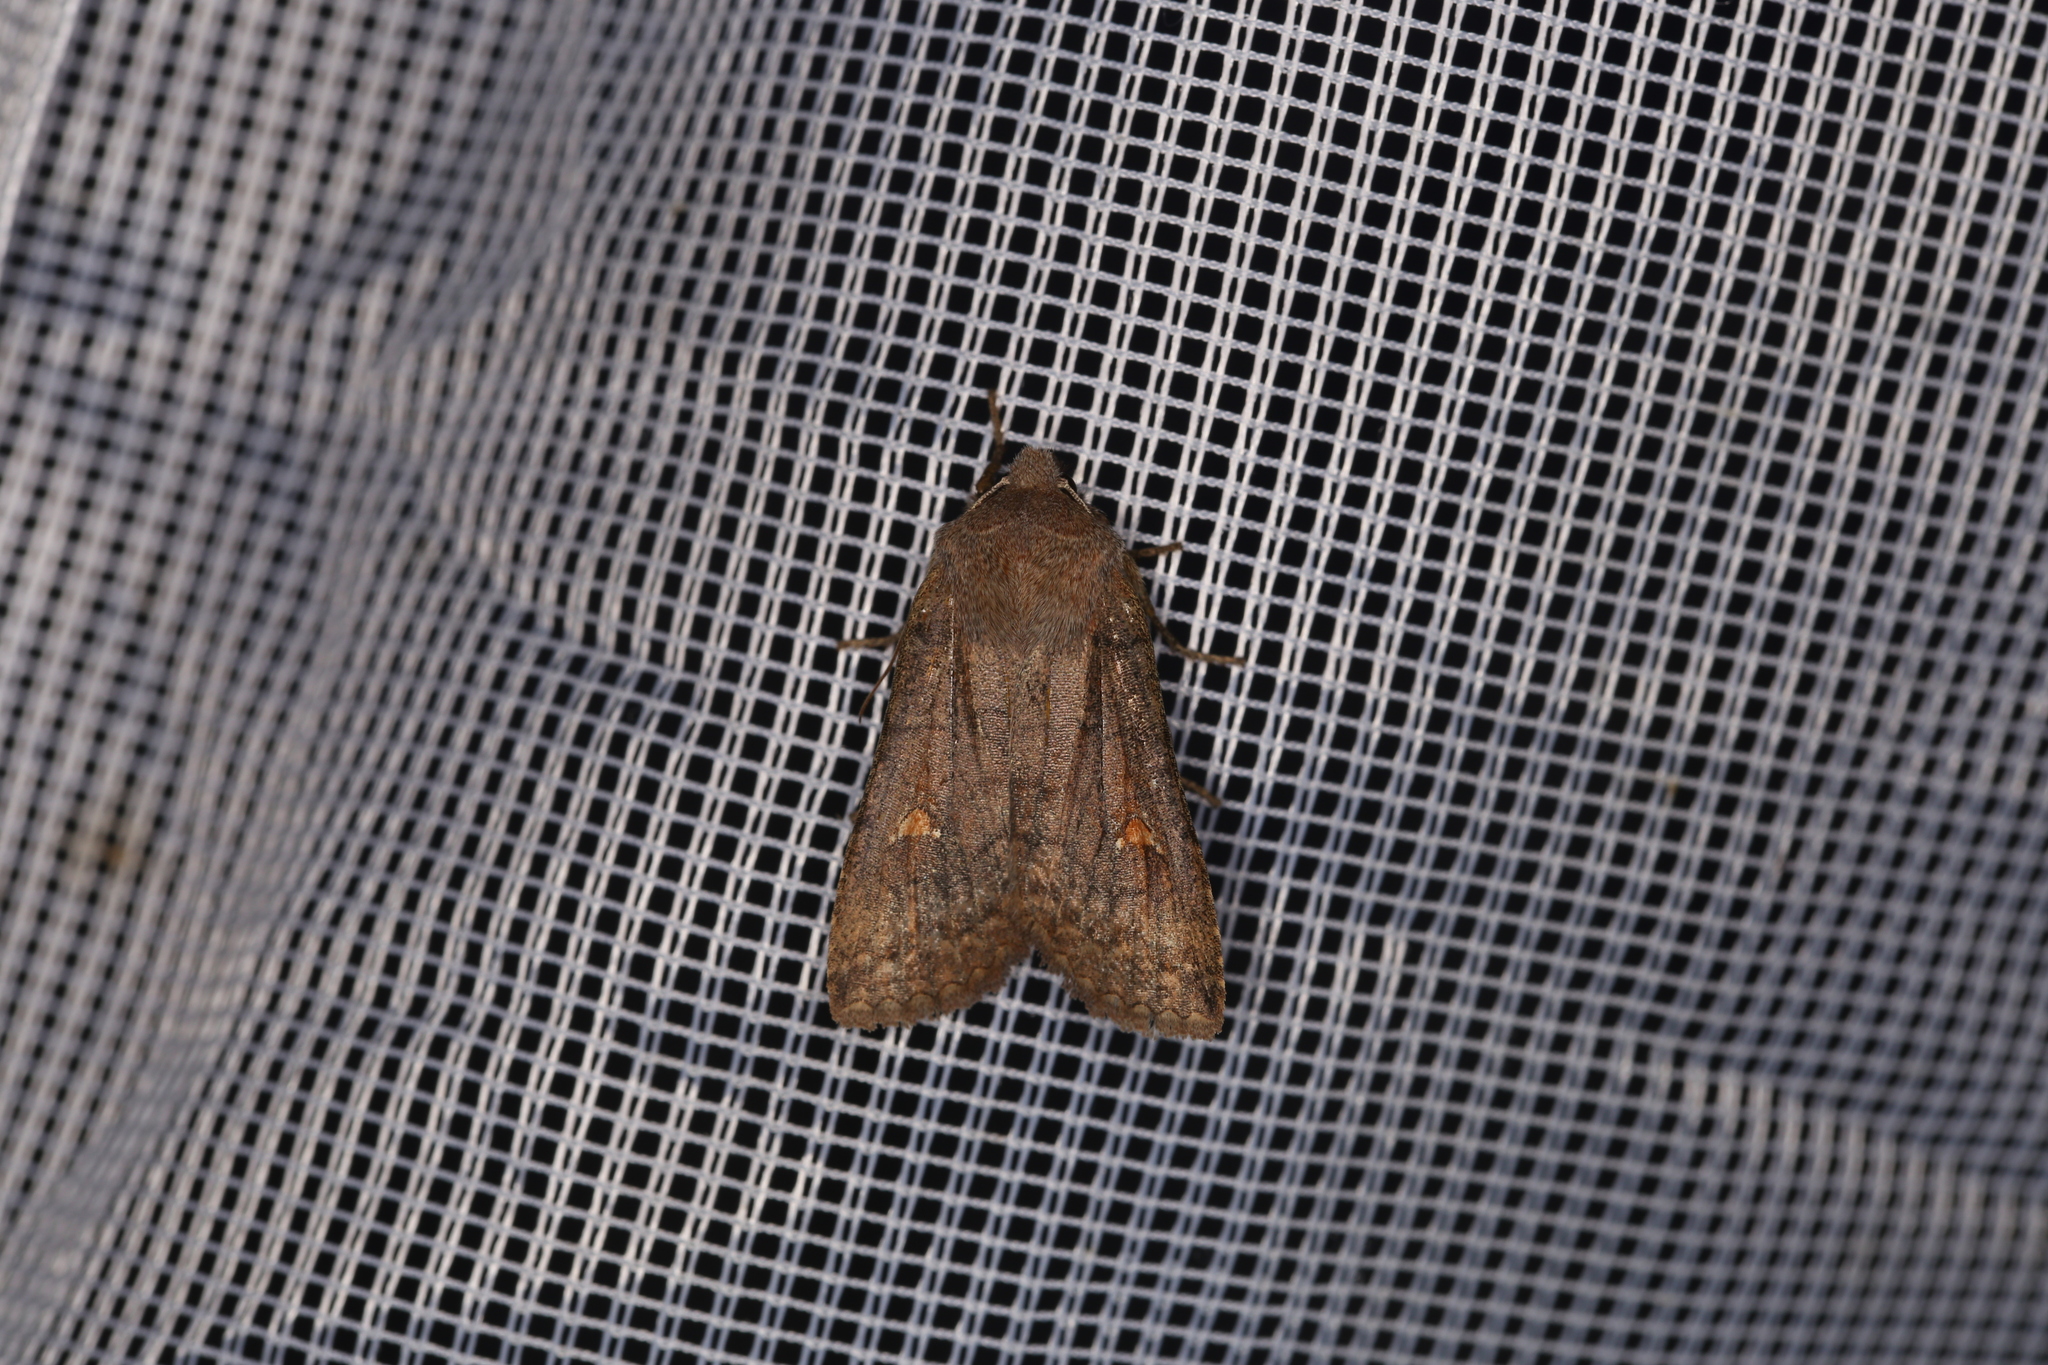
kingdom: Animalia
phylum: Arthropoda
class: Insecta
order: Lepidoptera
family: Noctuidae
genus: Eupsilia
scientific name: Eupsilia transversa
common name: Satellite
